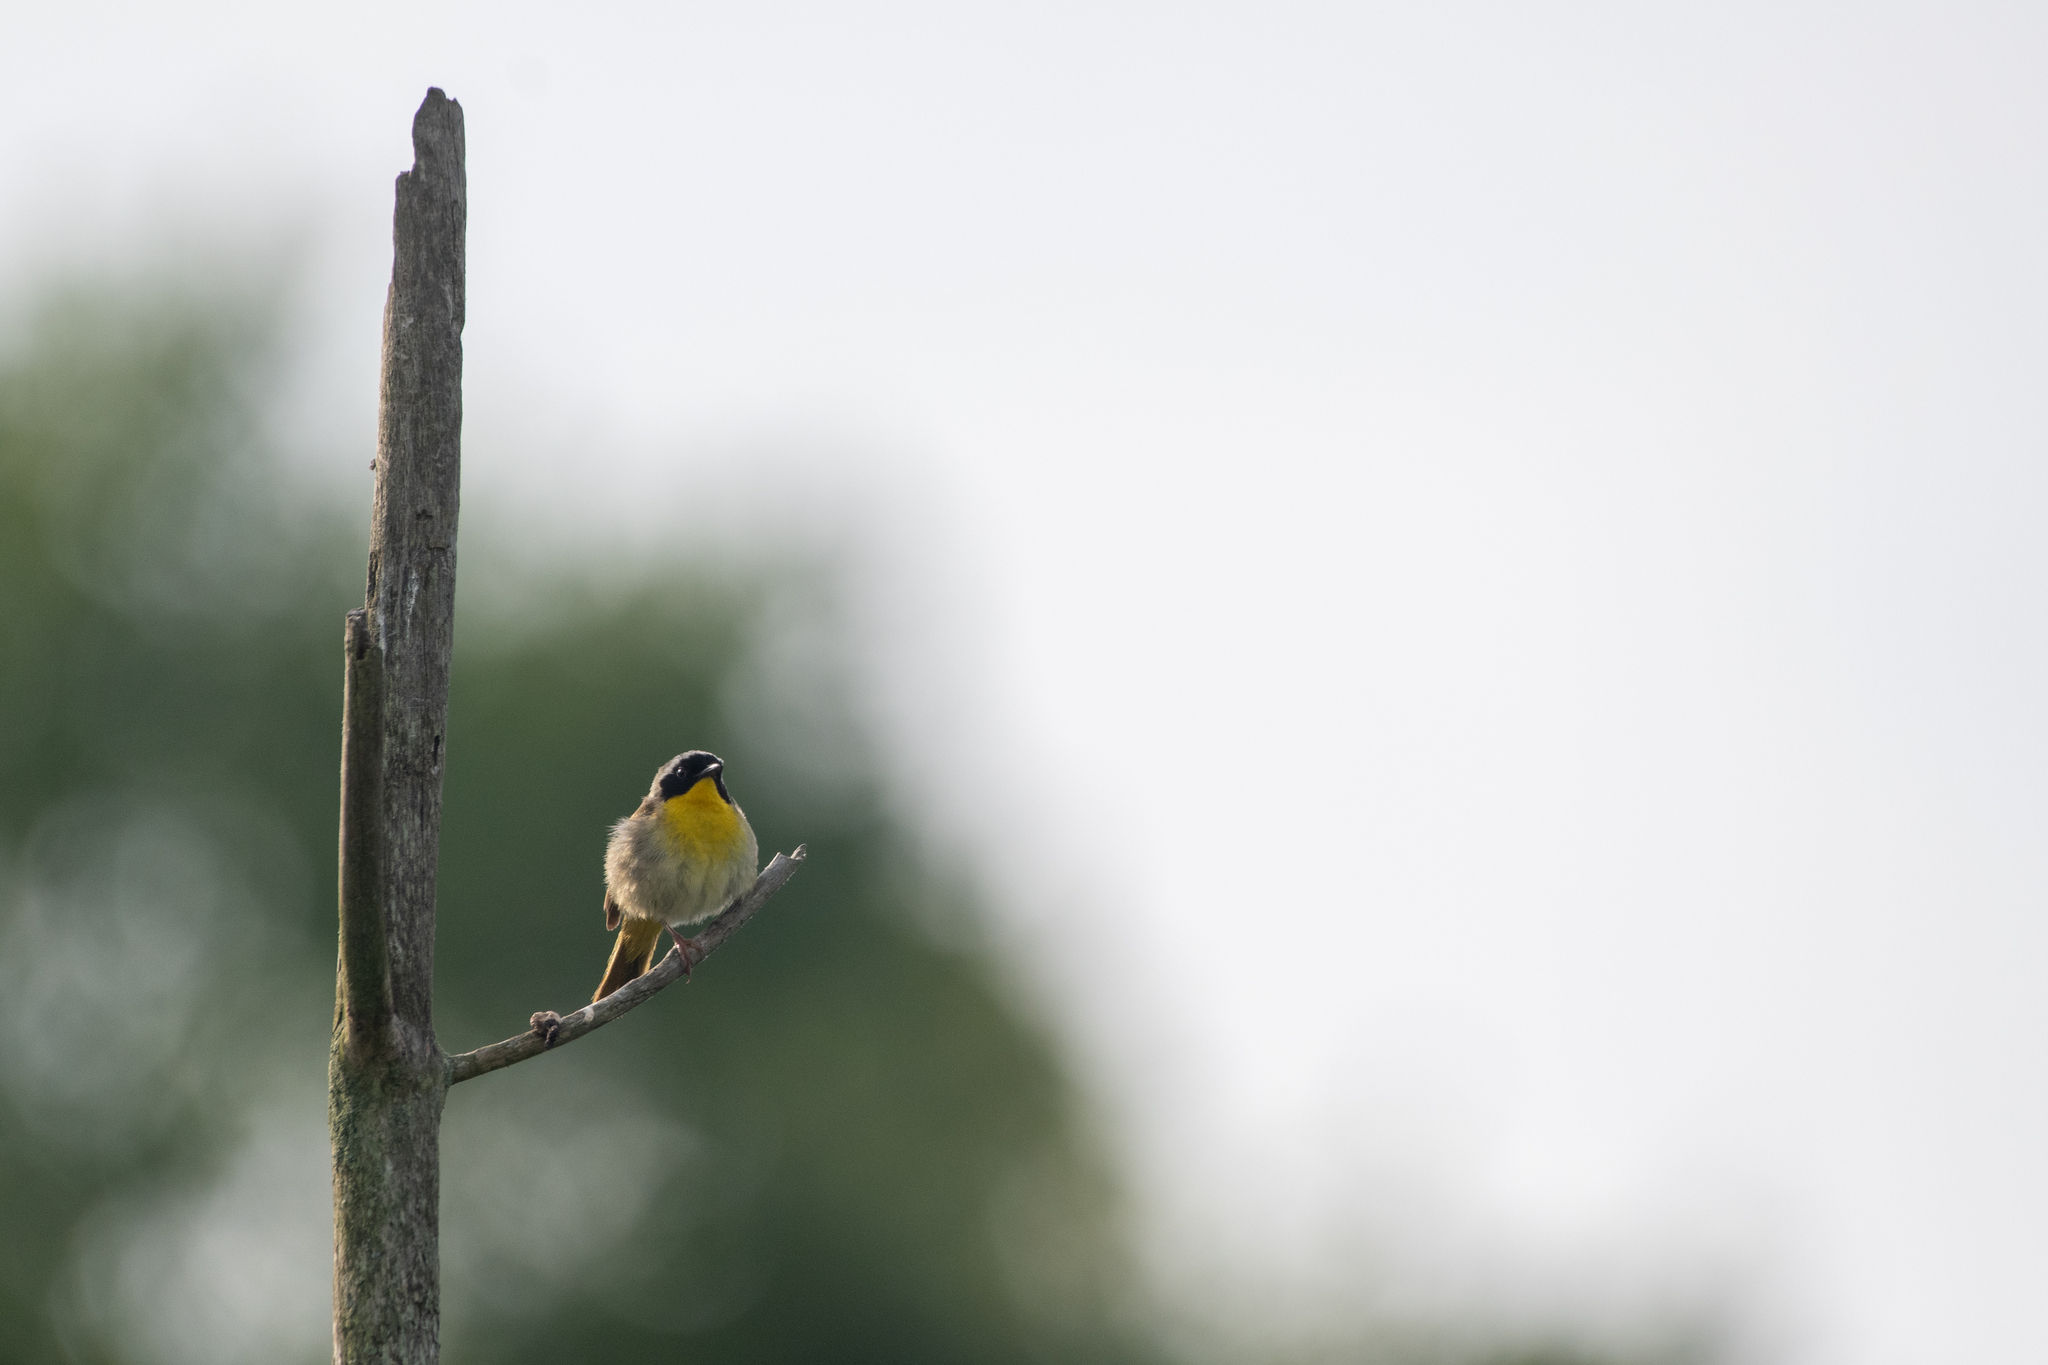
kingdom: Animalia
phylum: Chordata
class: Aves
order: Passeriformes
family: Parulidae
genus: Geothlypis
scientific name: Geothlypis trichas
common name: Common yellowthroat
